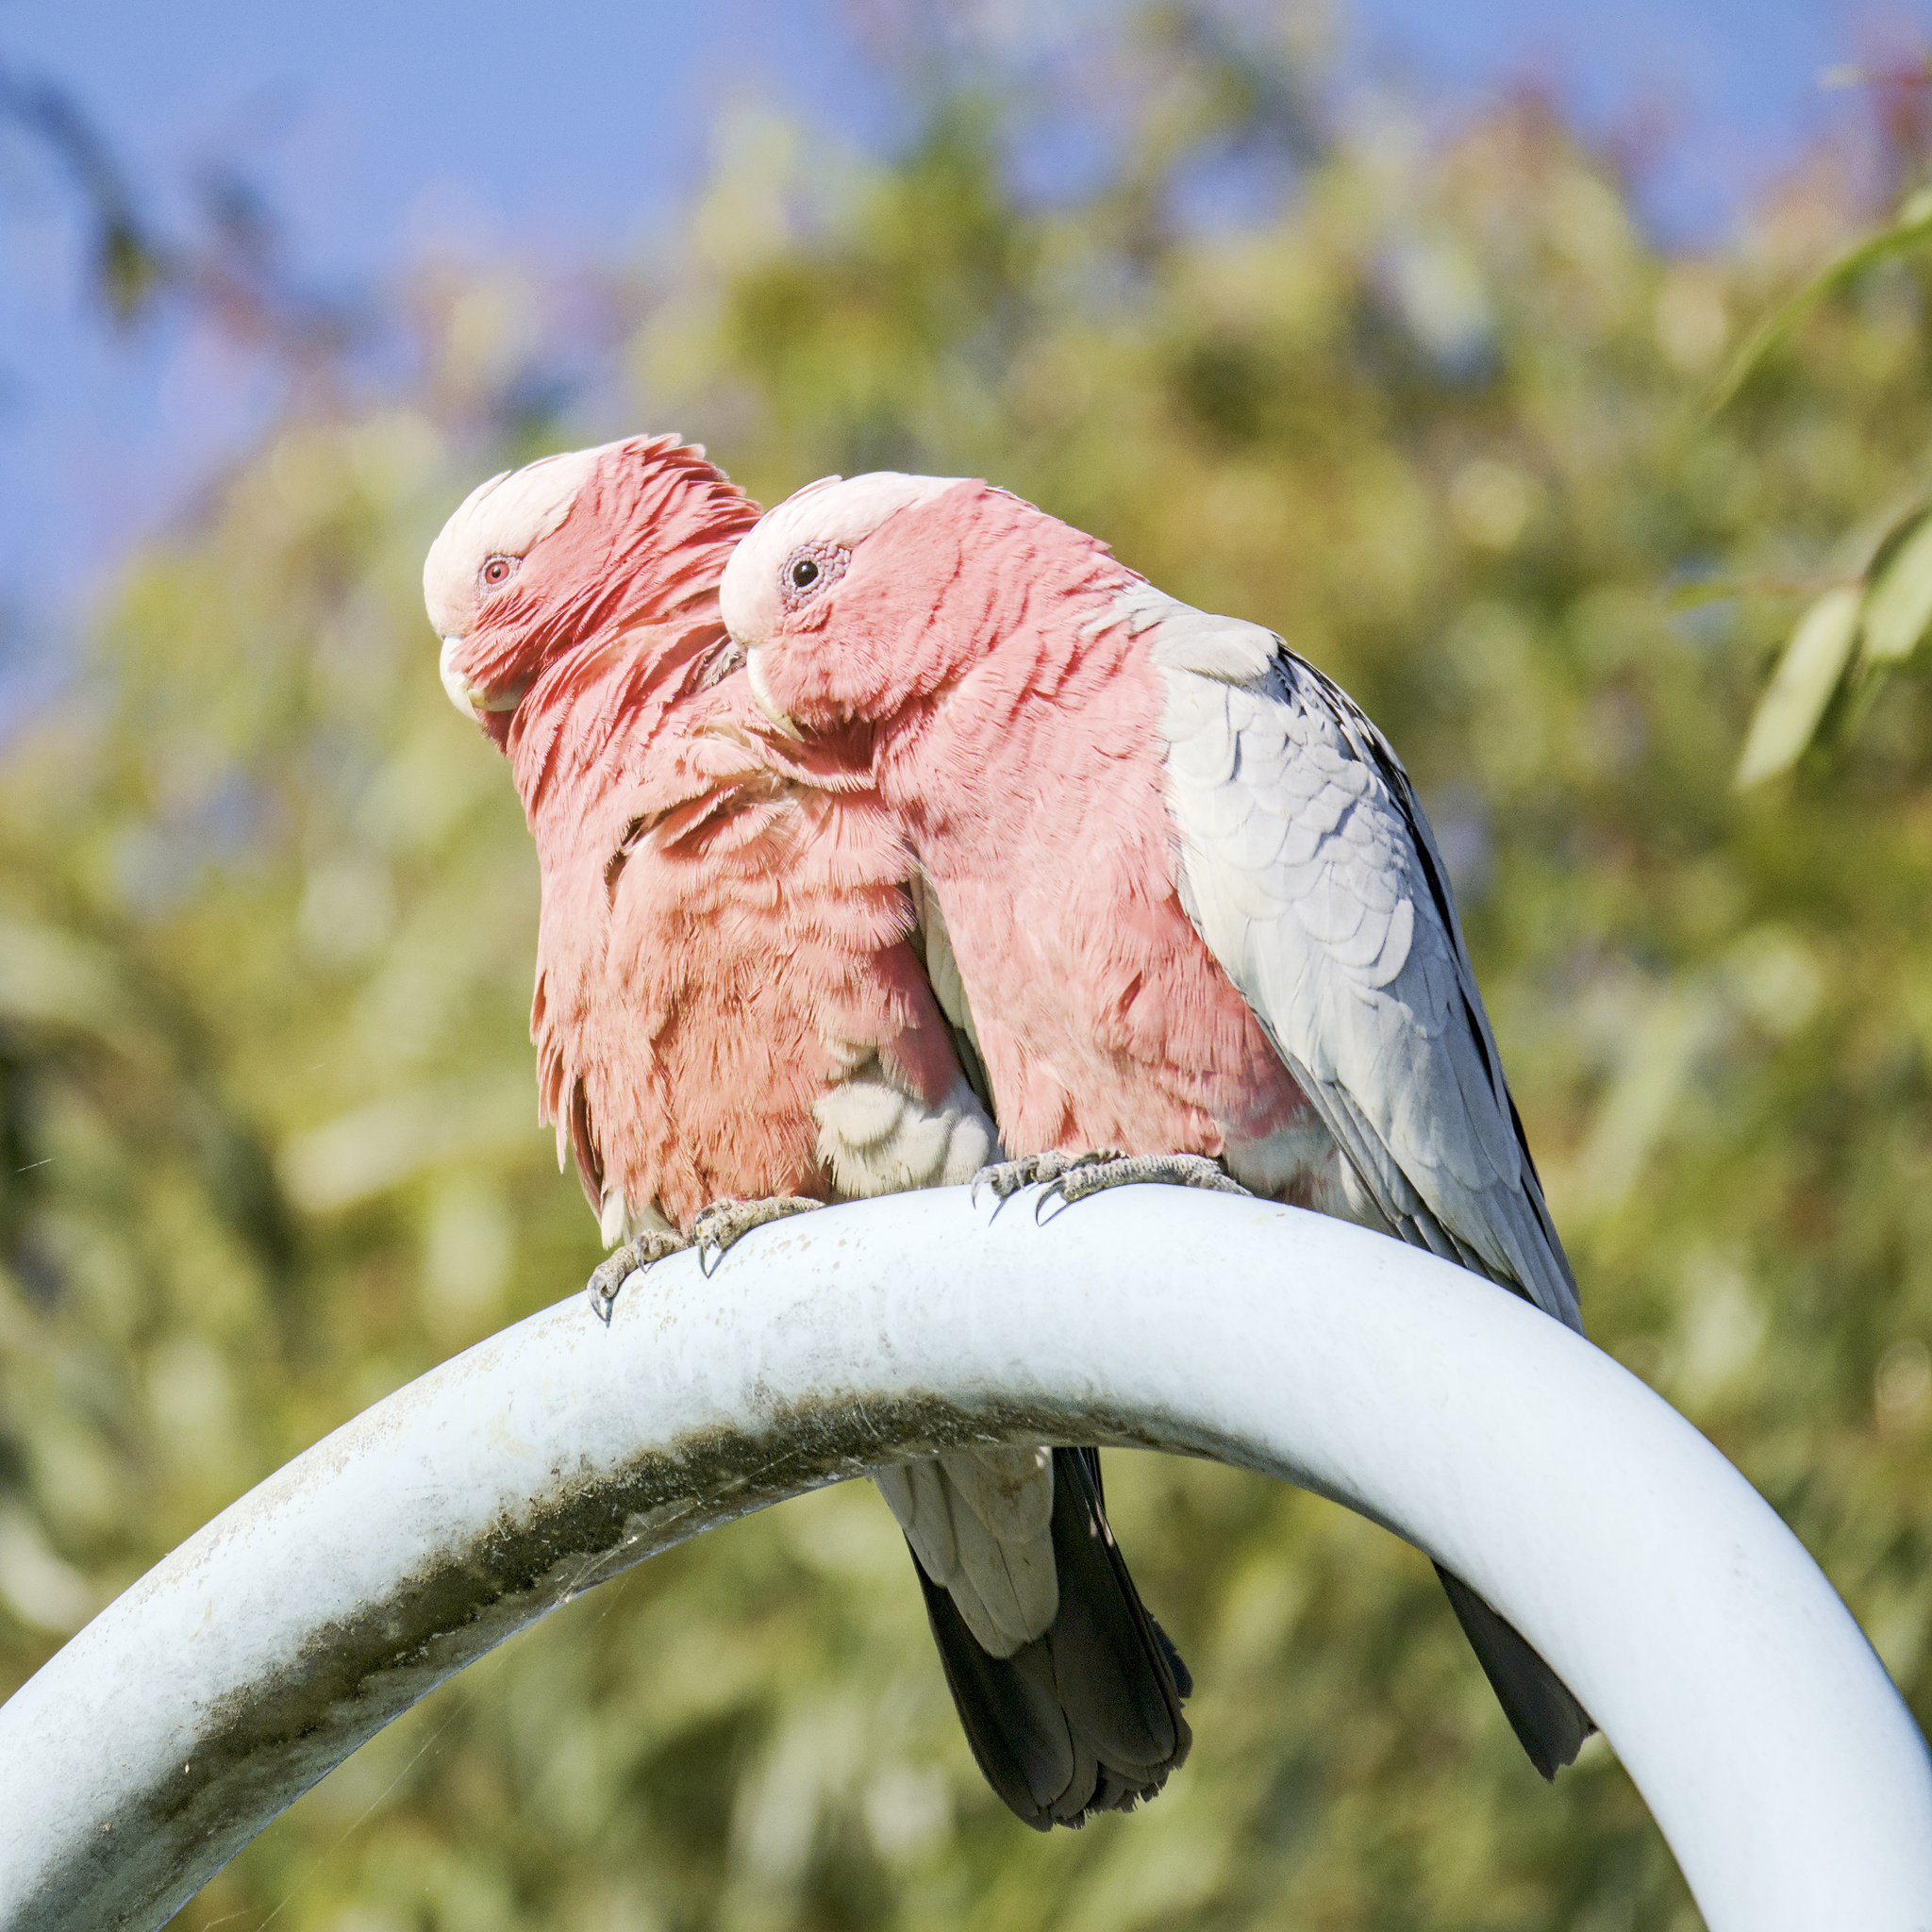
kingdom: Animalia
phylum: Chordata
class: Aves
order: Psittaciformes
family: Psittacidae
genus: Eolophus
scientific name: Eolophus roseicapilla
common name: Galah
